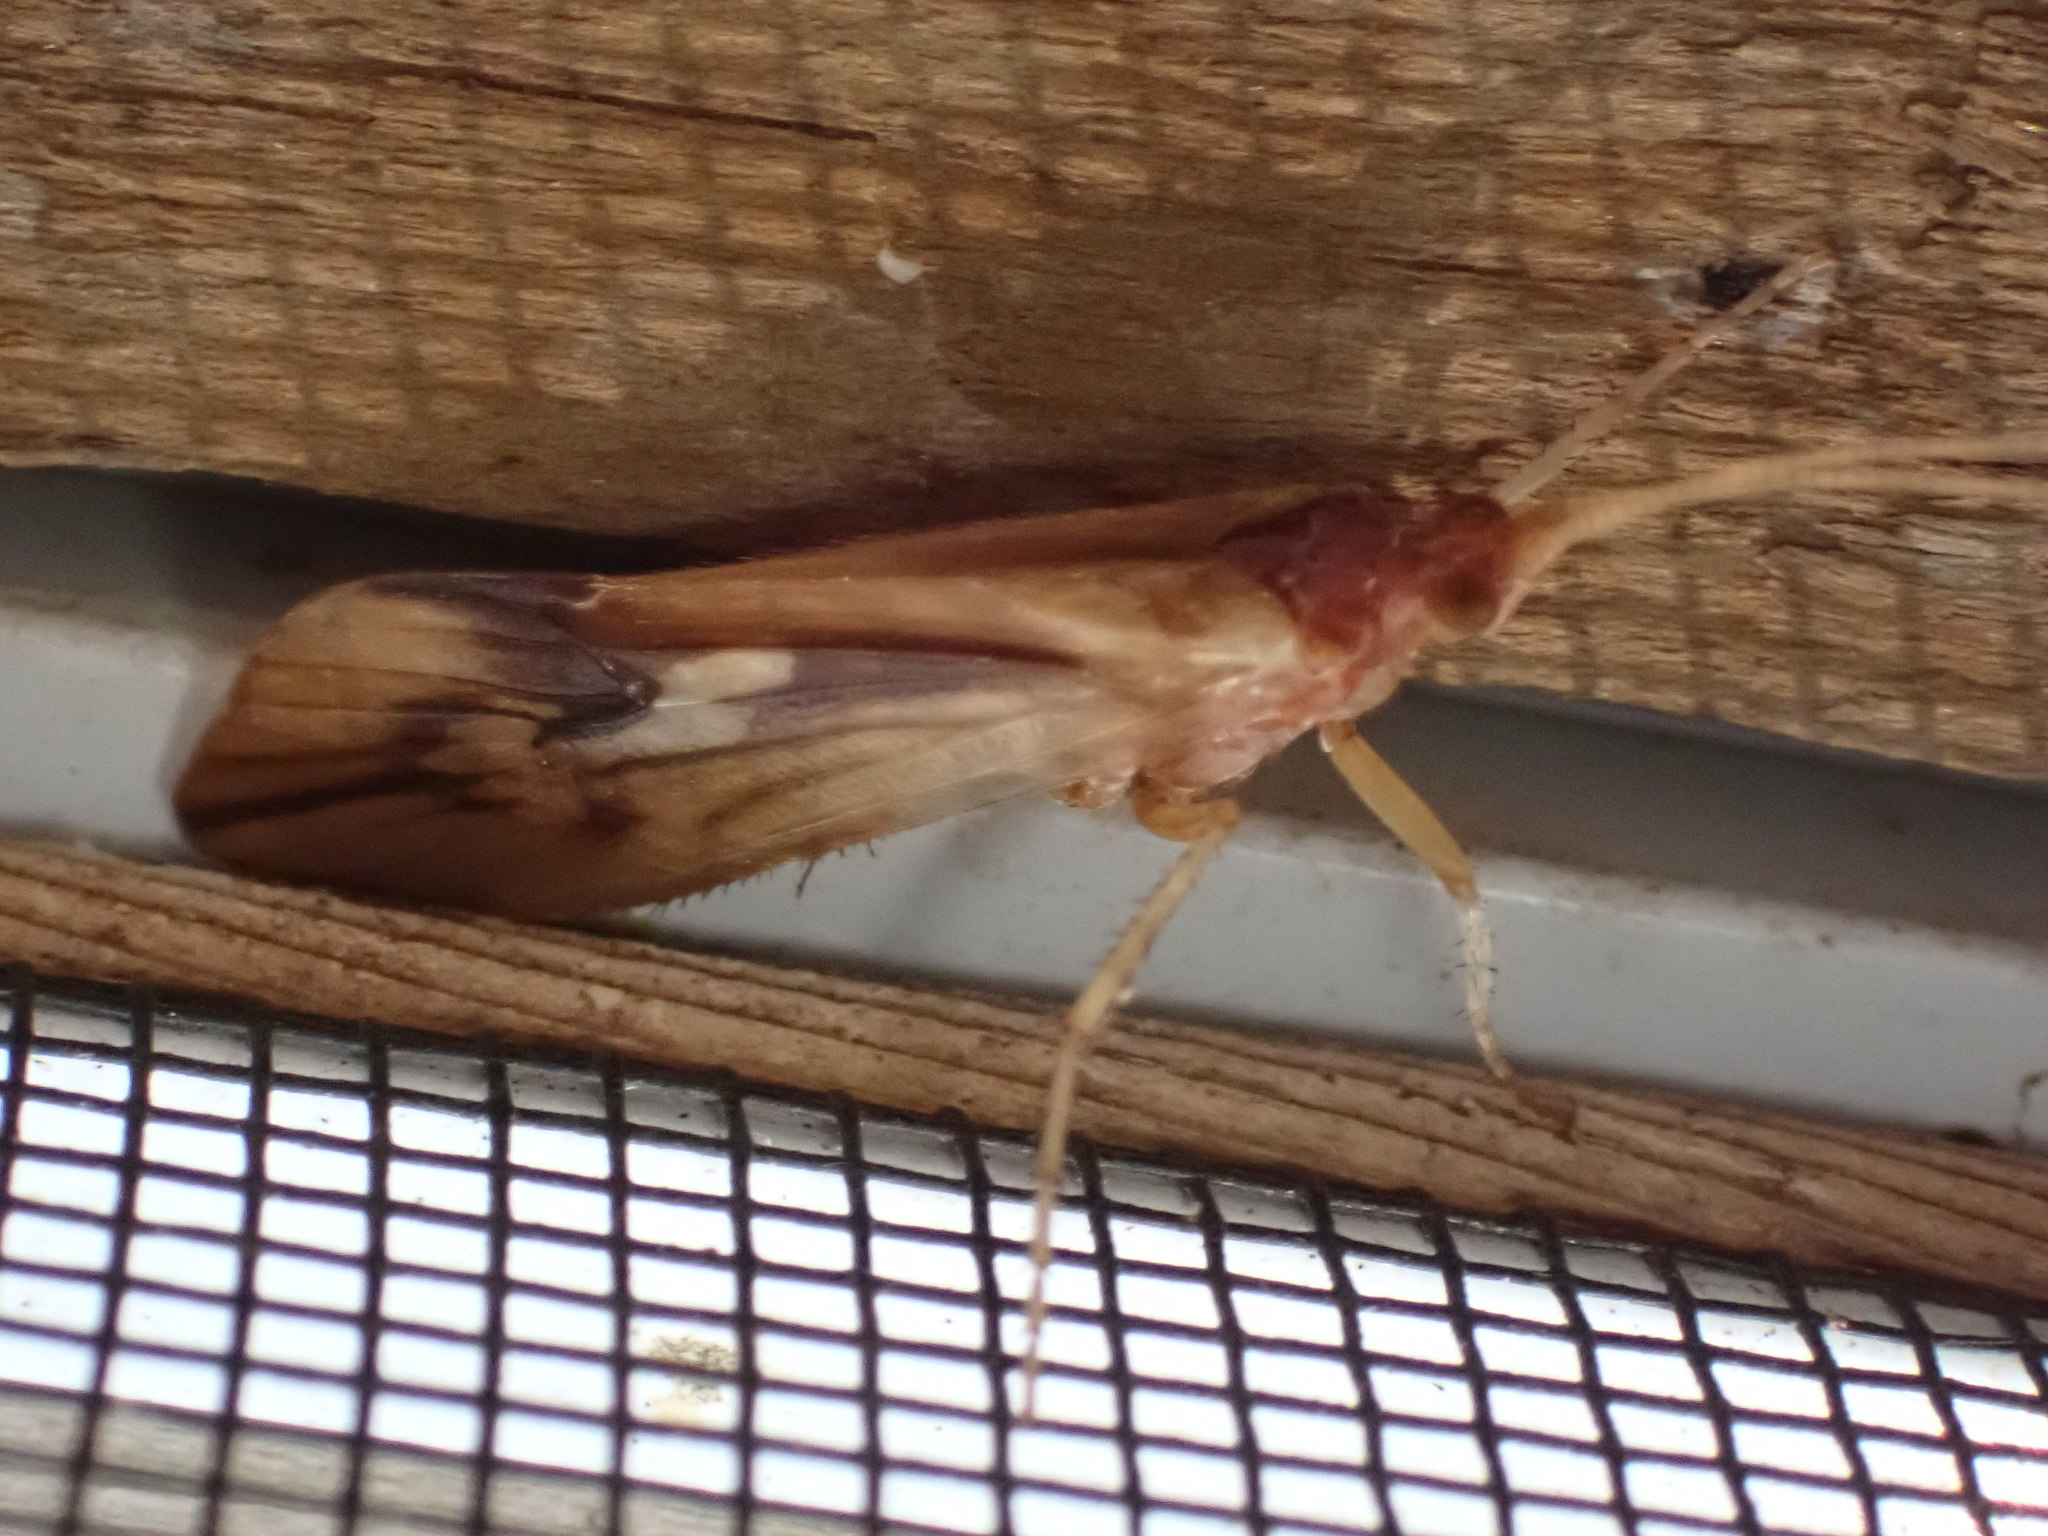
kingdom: Animalia
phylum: Arthropoda
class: Insecta
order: Trichoptera
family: Limnephilidae
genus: Platycentropus
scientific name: Platycentropus radiatus
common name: Chocolate-and-cream sedge
